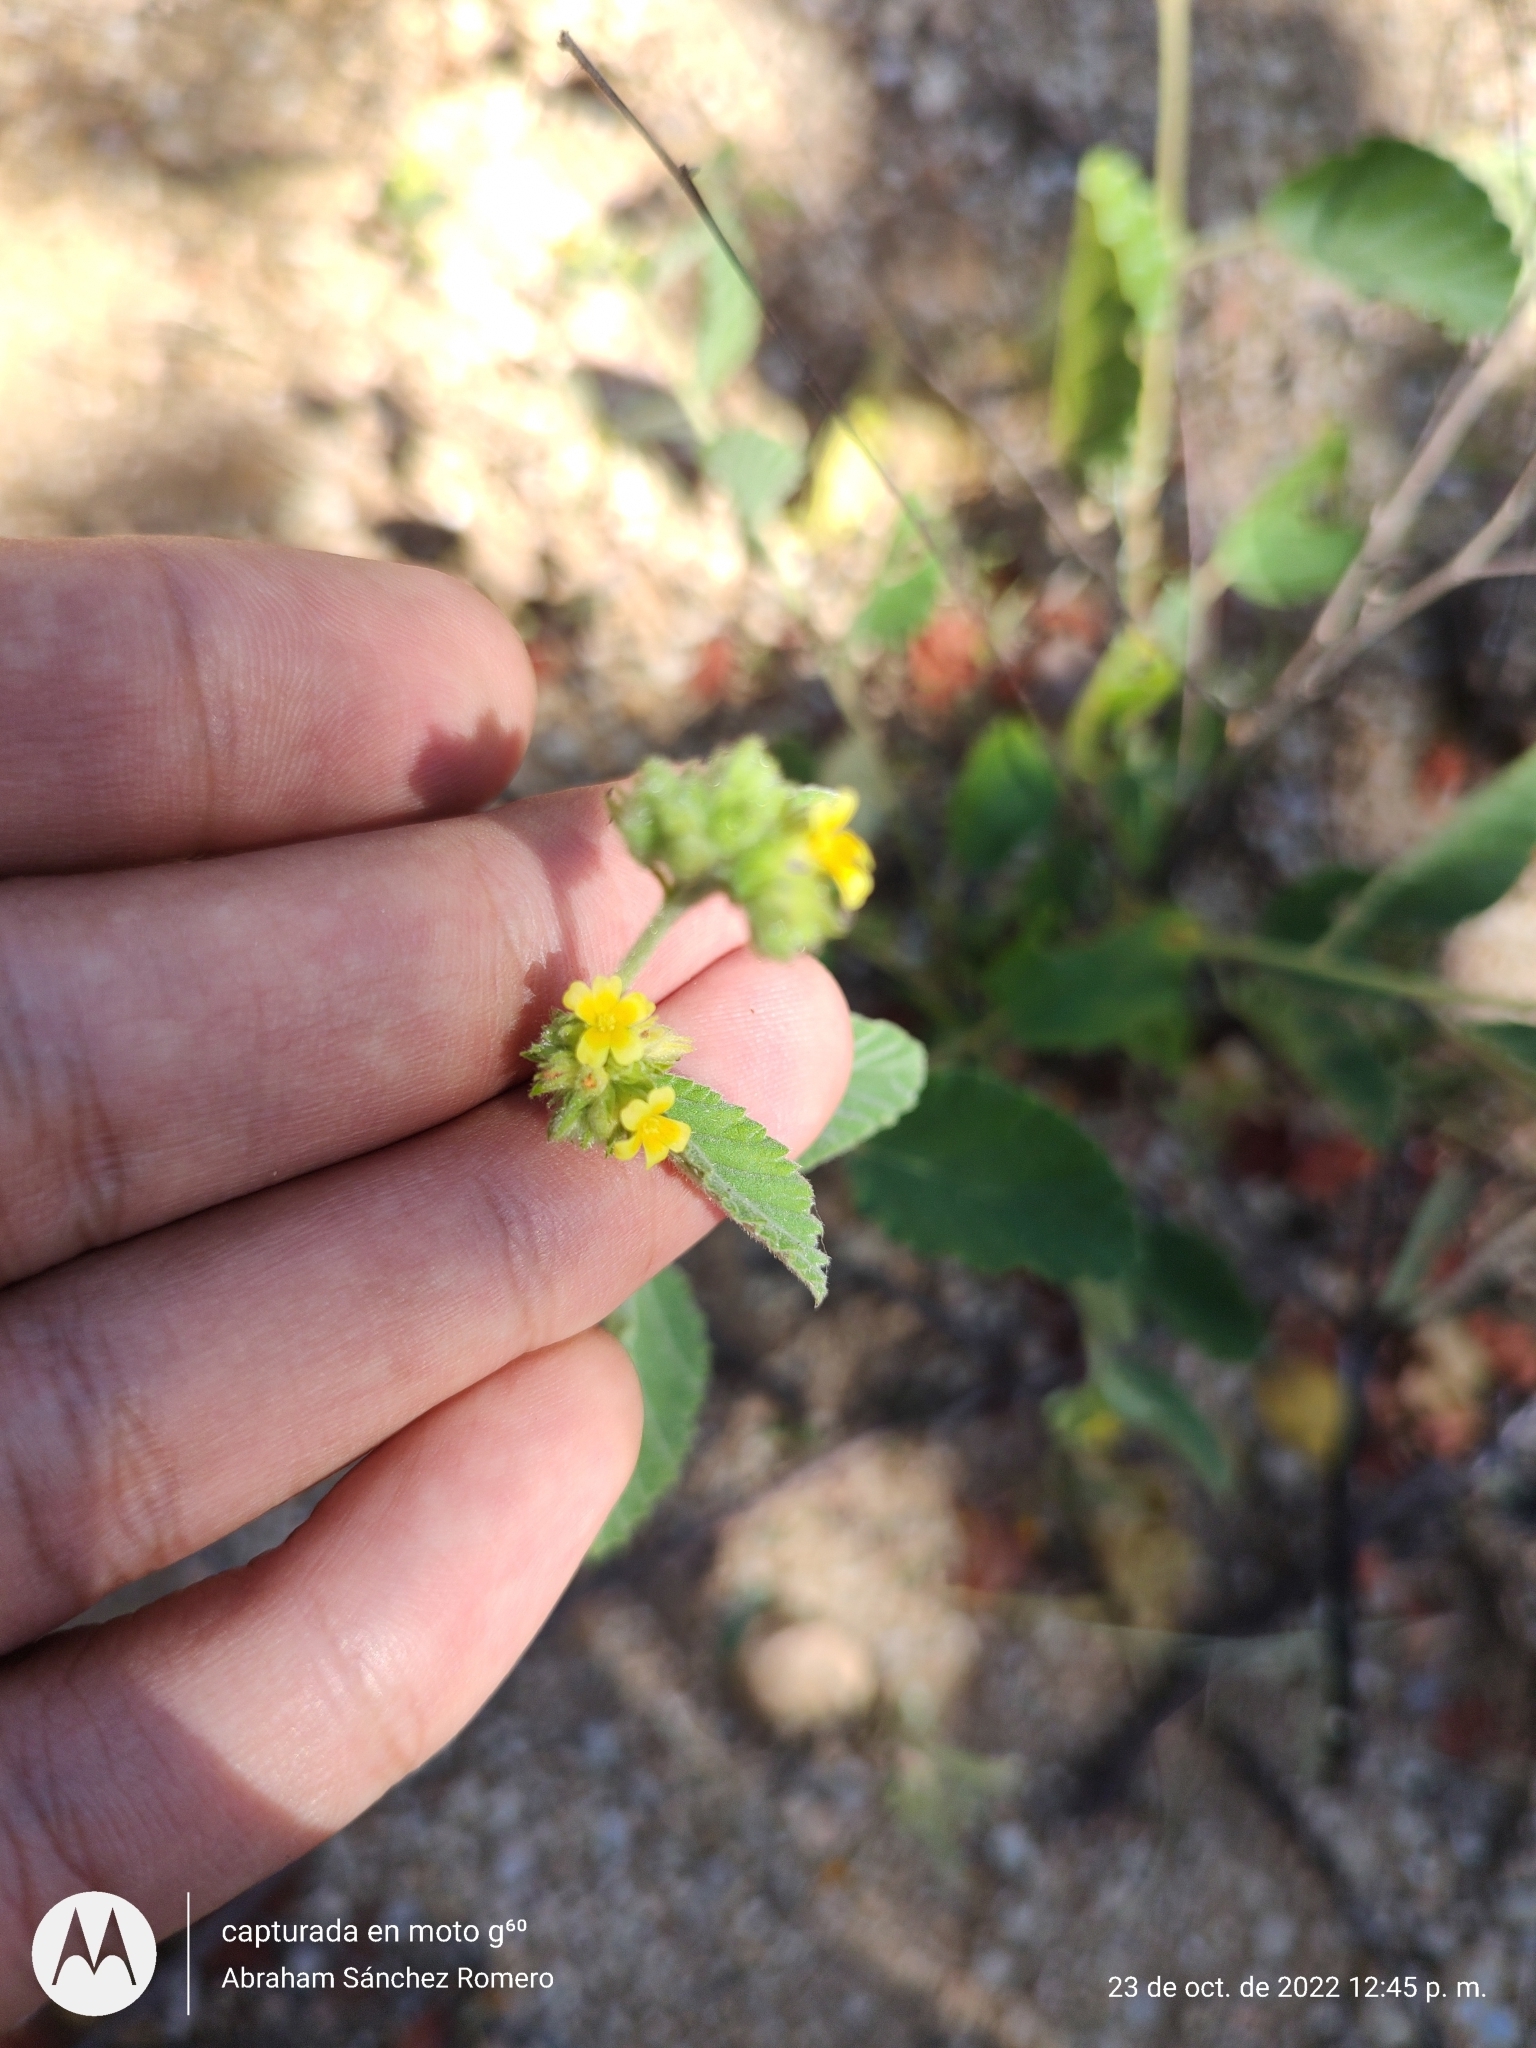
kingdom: Plantae
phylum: Tracheophyta
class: Magnoliopsida
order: Malvales
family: Malvaceae
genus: Waltheria
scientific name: Waltheria indica
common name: Leather-coat
